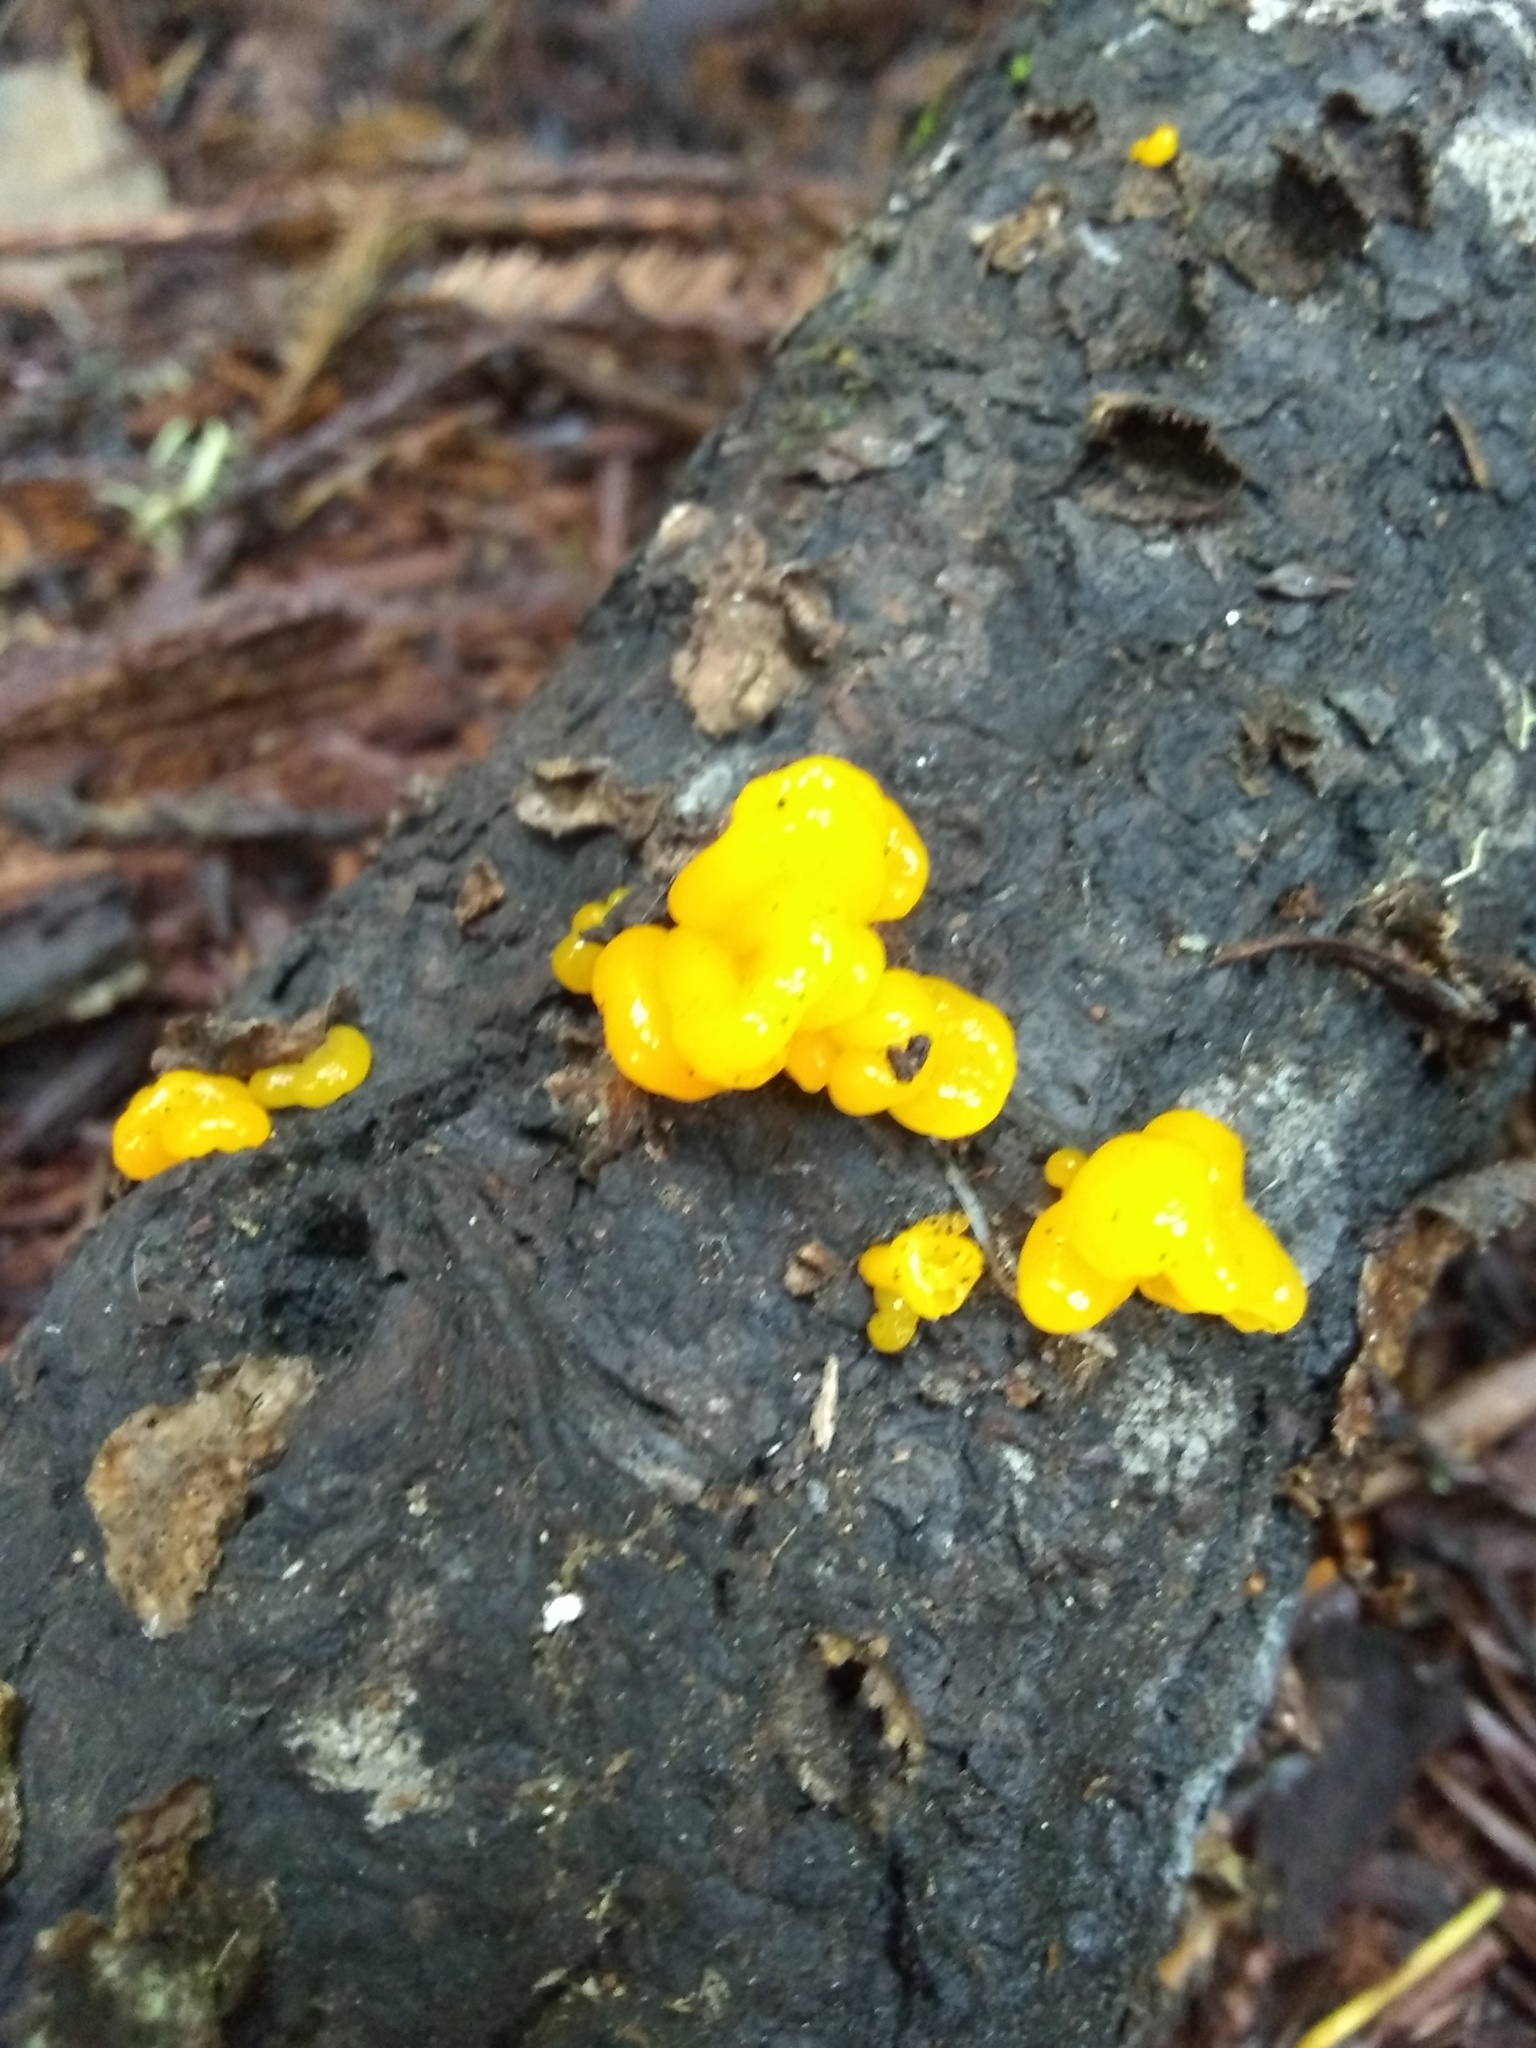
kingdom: Fungi
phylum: Basidiomycota
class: Dacrymycetes
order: Dacrymycetales
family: Dacrymycetaceae
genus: Dacrymyces
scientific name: Dacrymyces chrysospermus
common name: Orange jelly spot
